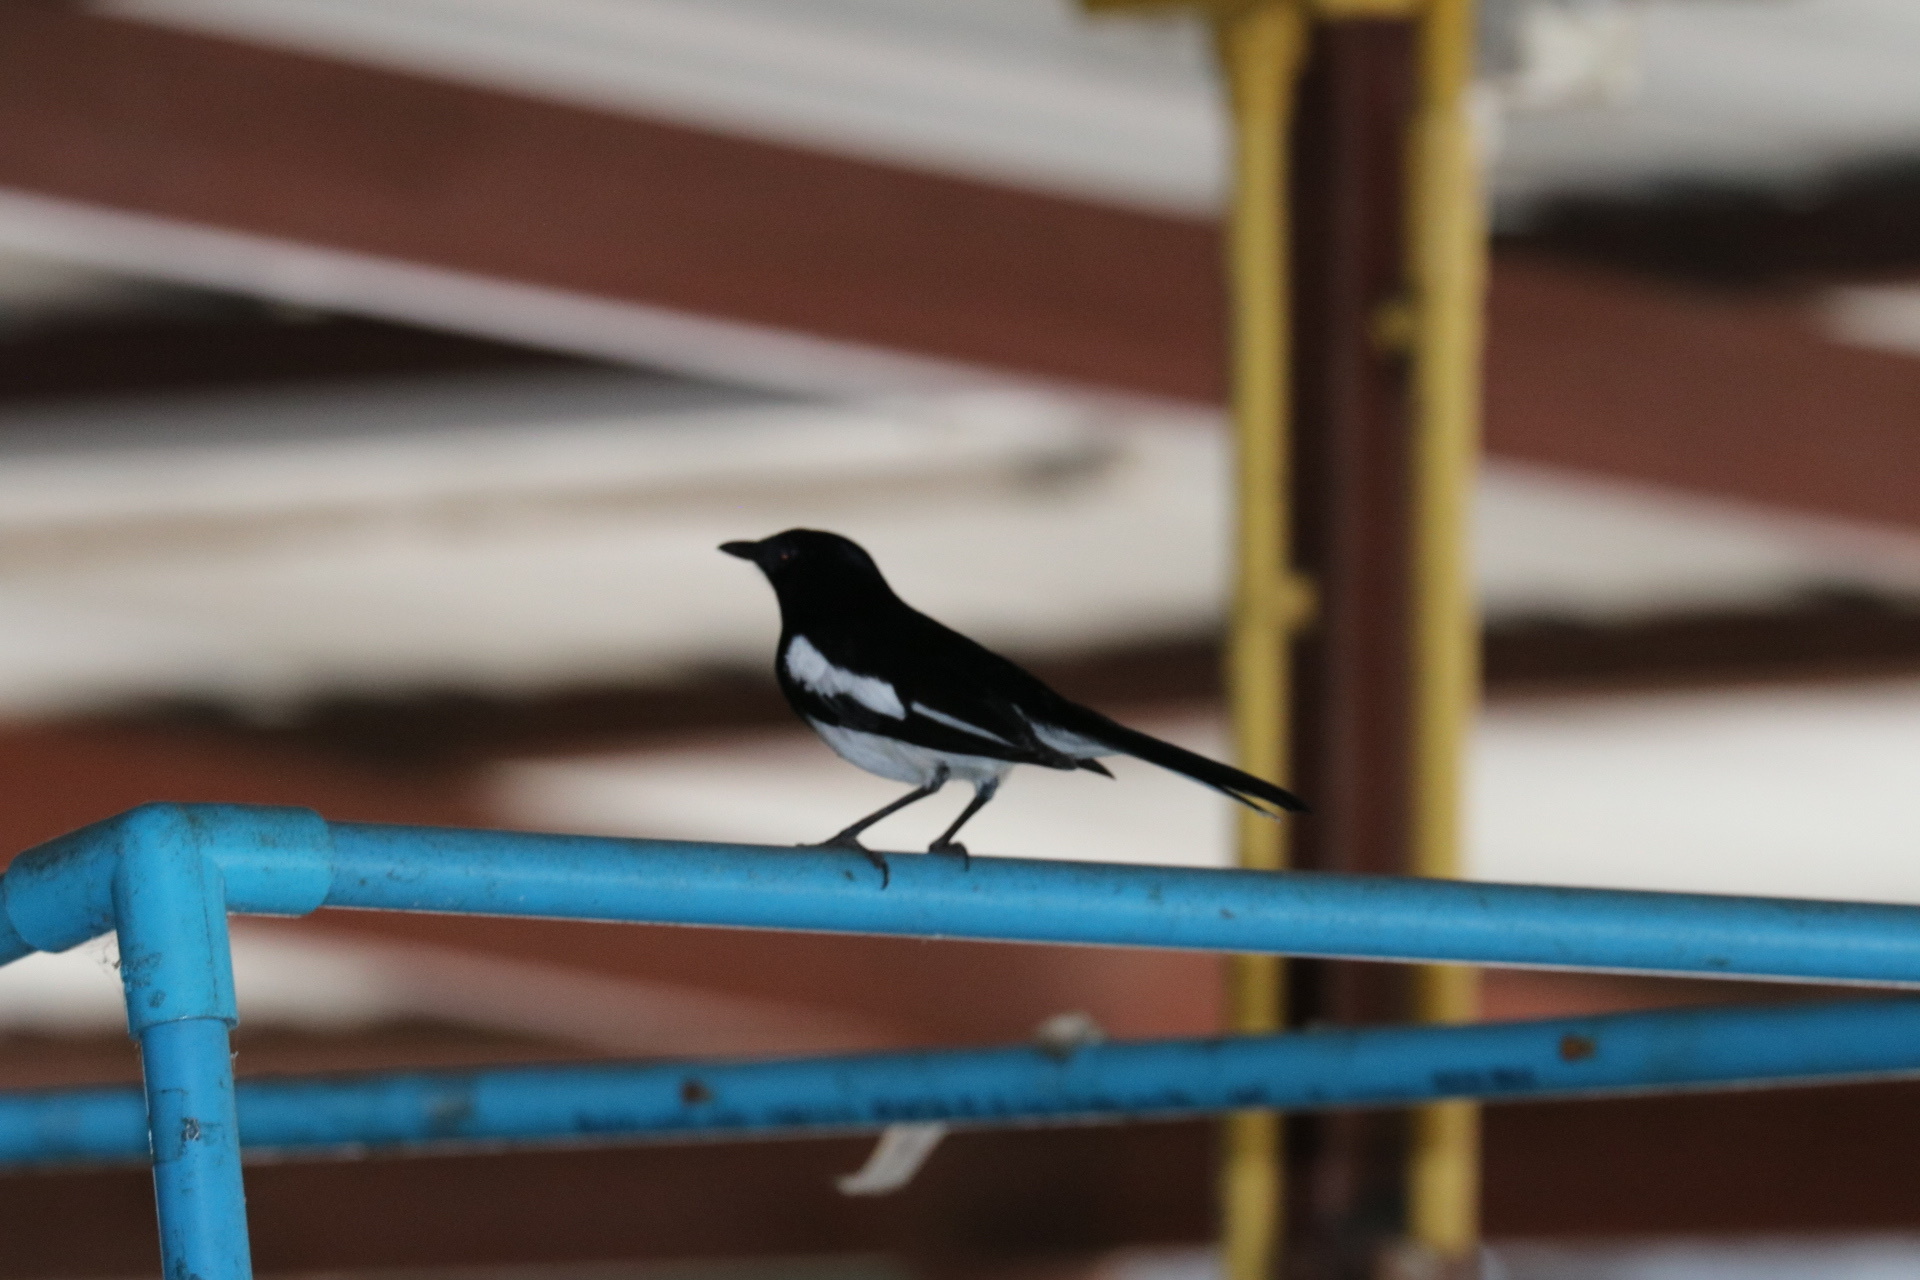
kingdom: Animalia
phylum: Chordata
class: Aves
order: Passeriformes
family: Muscicapidae
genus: Copsychus
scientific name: Copsychus saularis
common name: Oriental magpie-robin
